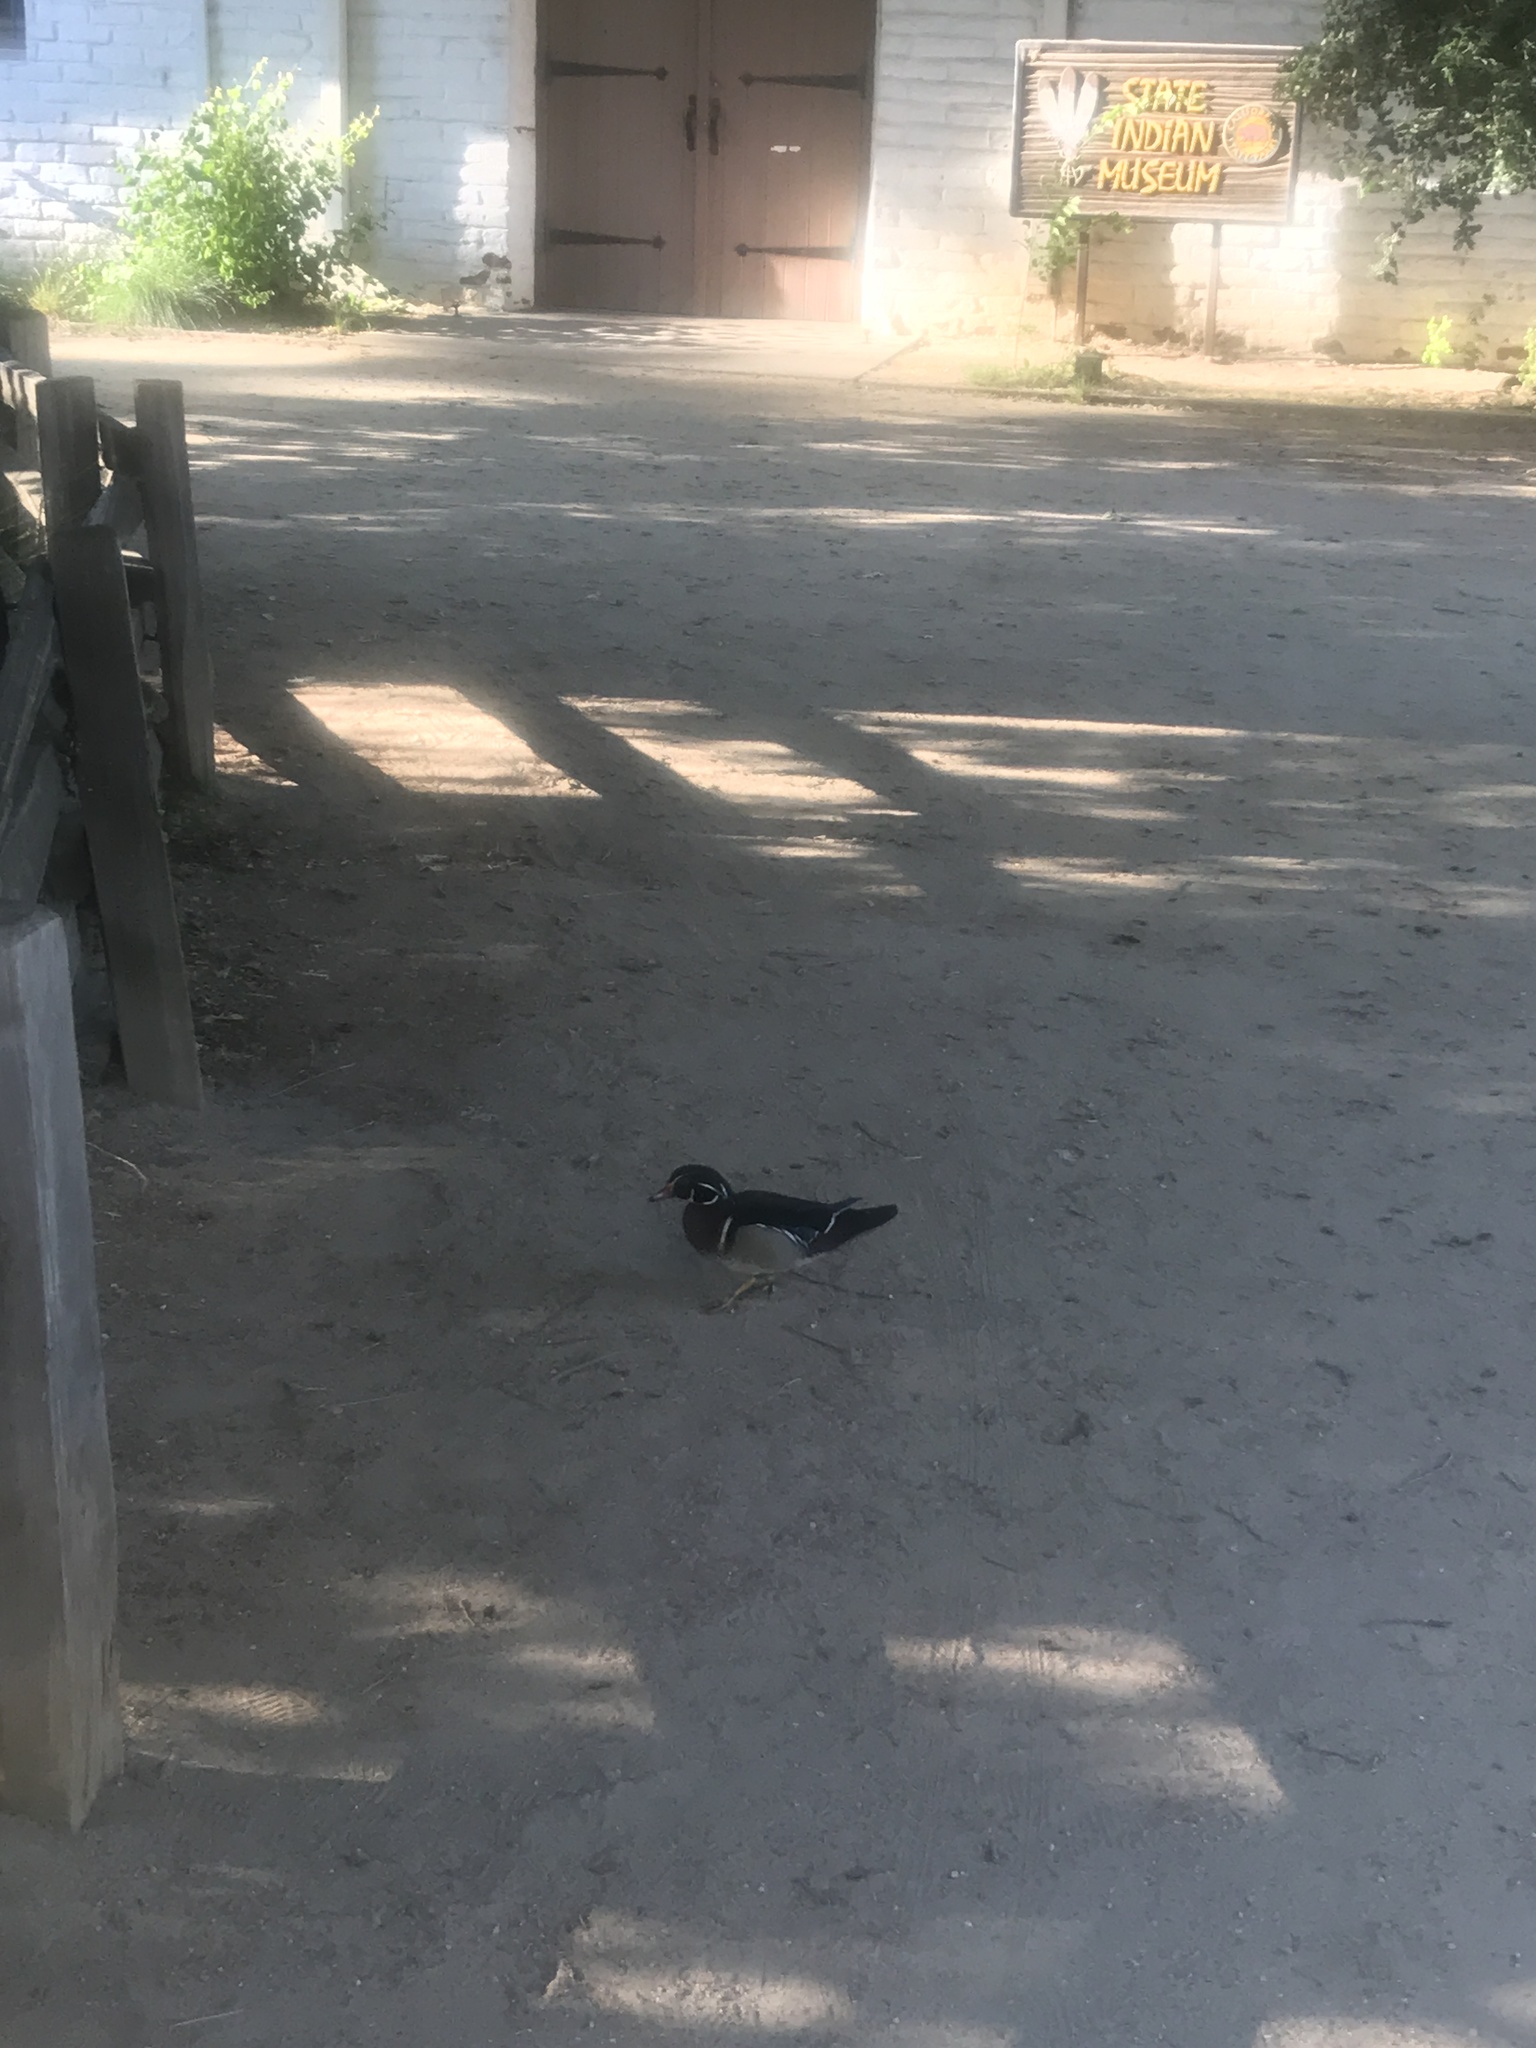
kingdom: Animalia
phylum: Chordata
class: Aves
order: Anseriformes
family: Anatidae
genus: Aix
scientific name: Aix sponsa
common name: Wood duck
